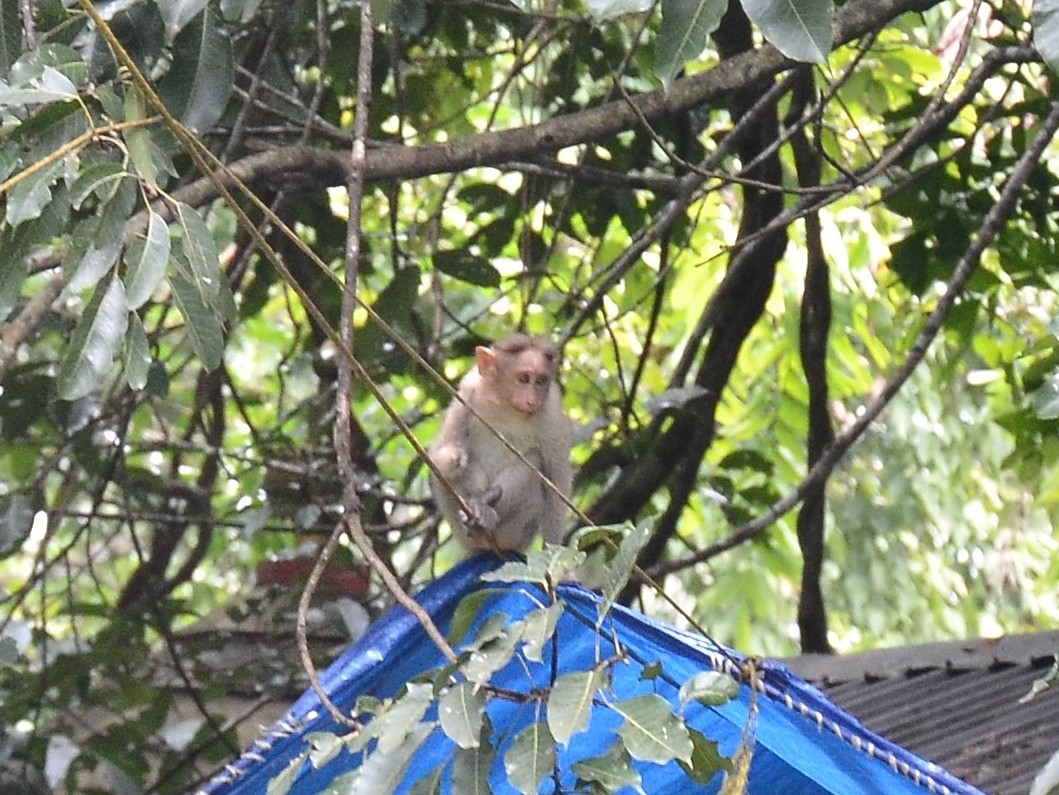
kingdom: Animalia
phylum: Chordata
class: Mammalia
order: Primates
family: Cercopithecidae
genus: Macaca
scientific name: Macaca radiata
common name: Bonnet macaque
